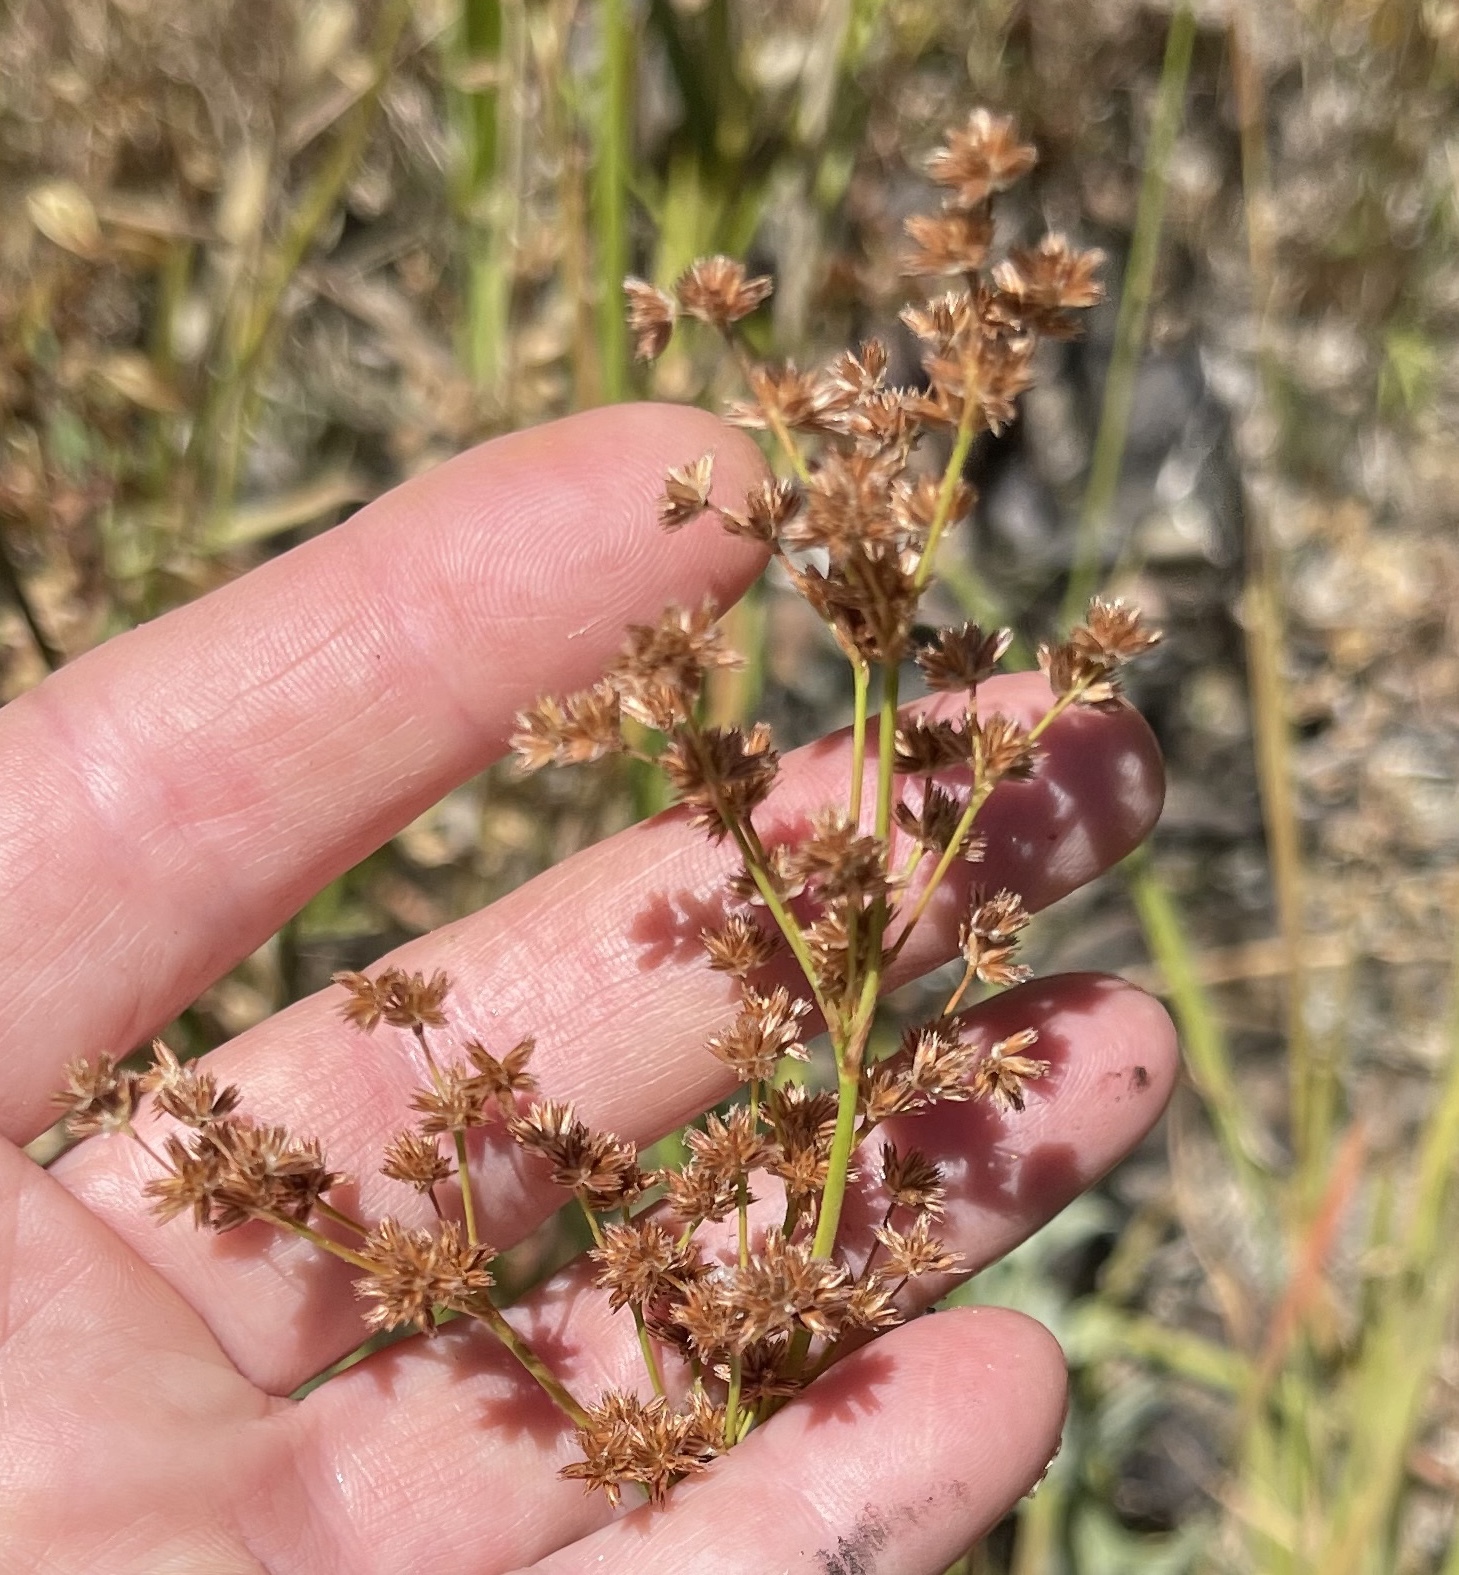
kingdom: Plantae
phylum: Tracheophyta
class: Liliopsida
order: Poales
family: Juncaceae
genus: Juncus
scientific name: Juncus xiphioides
